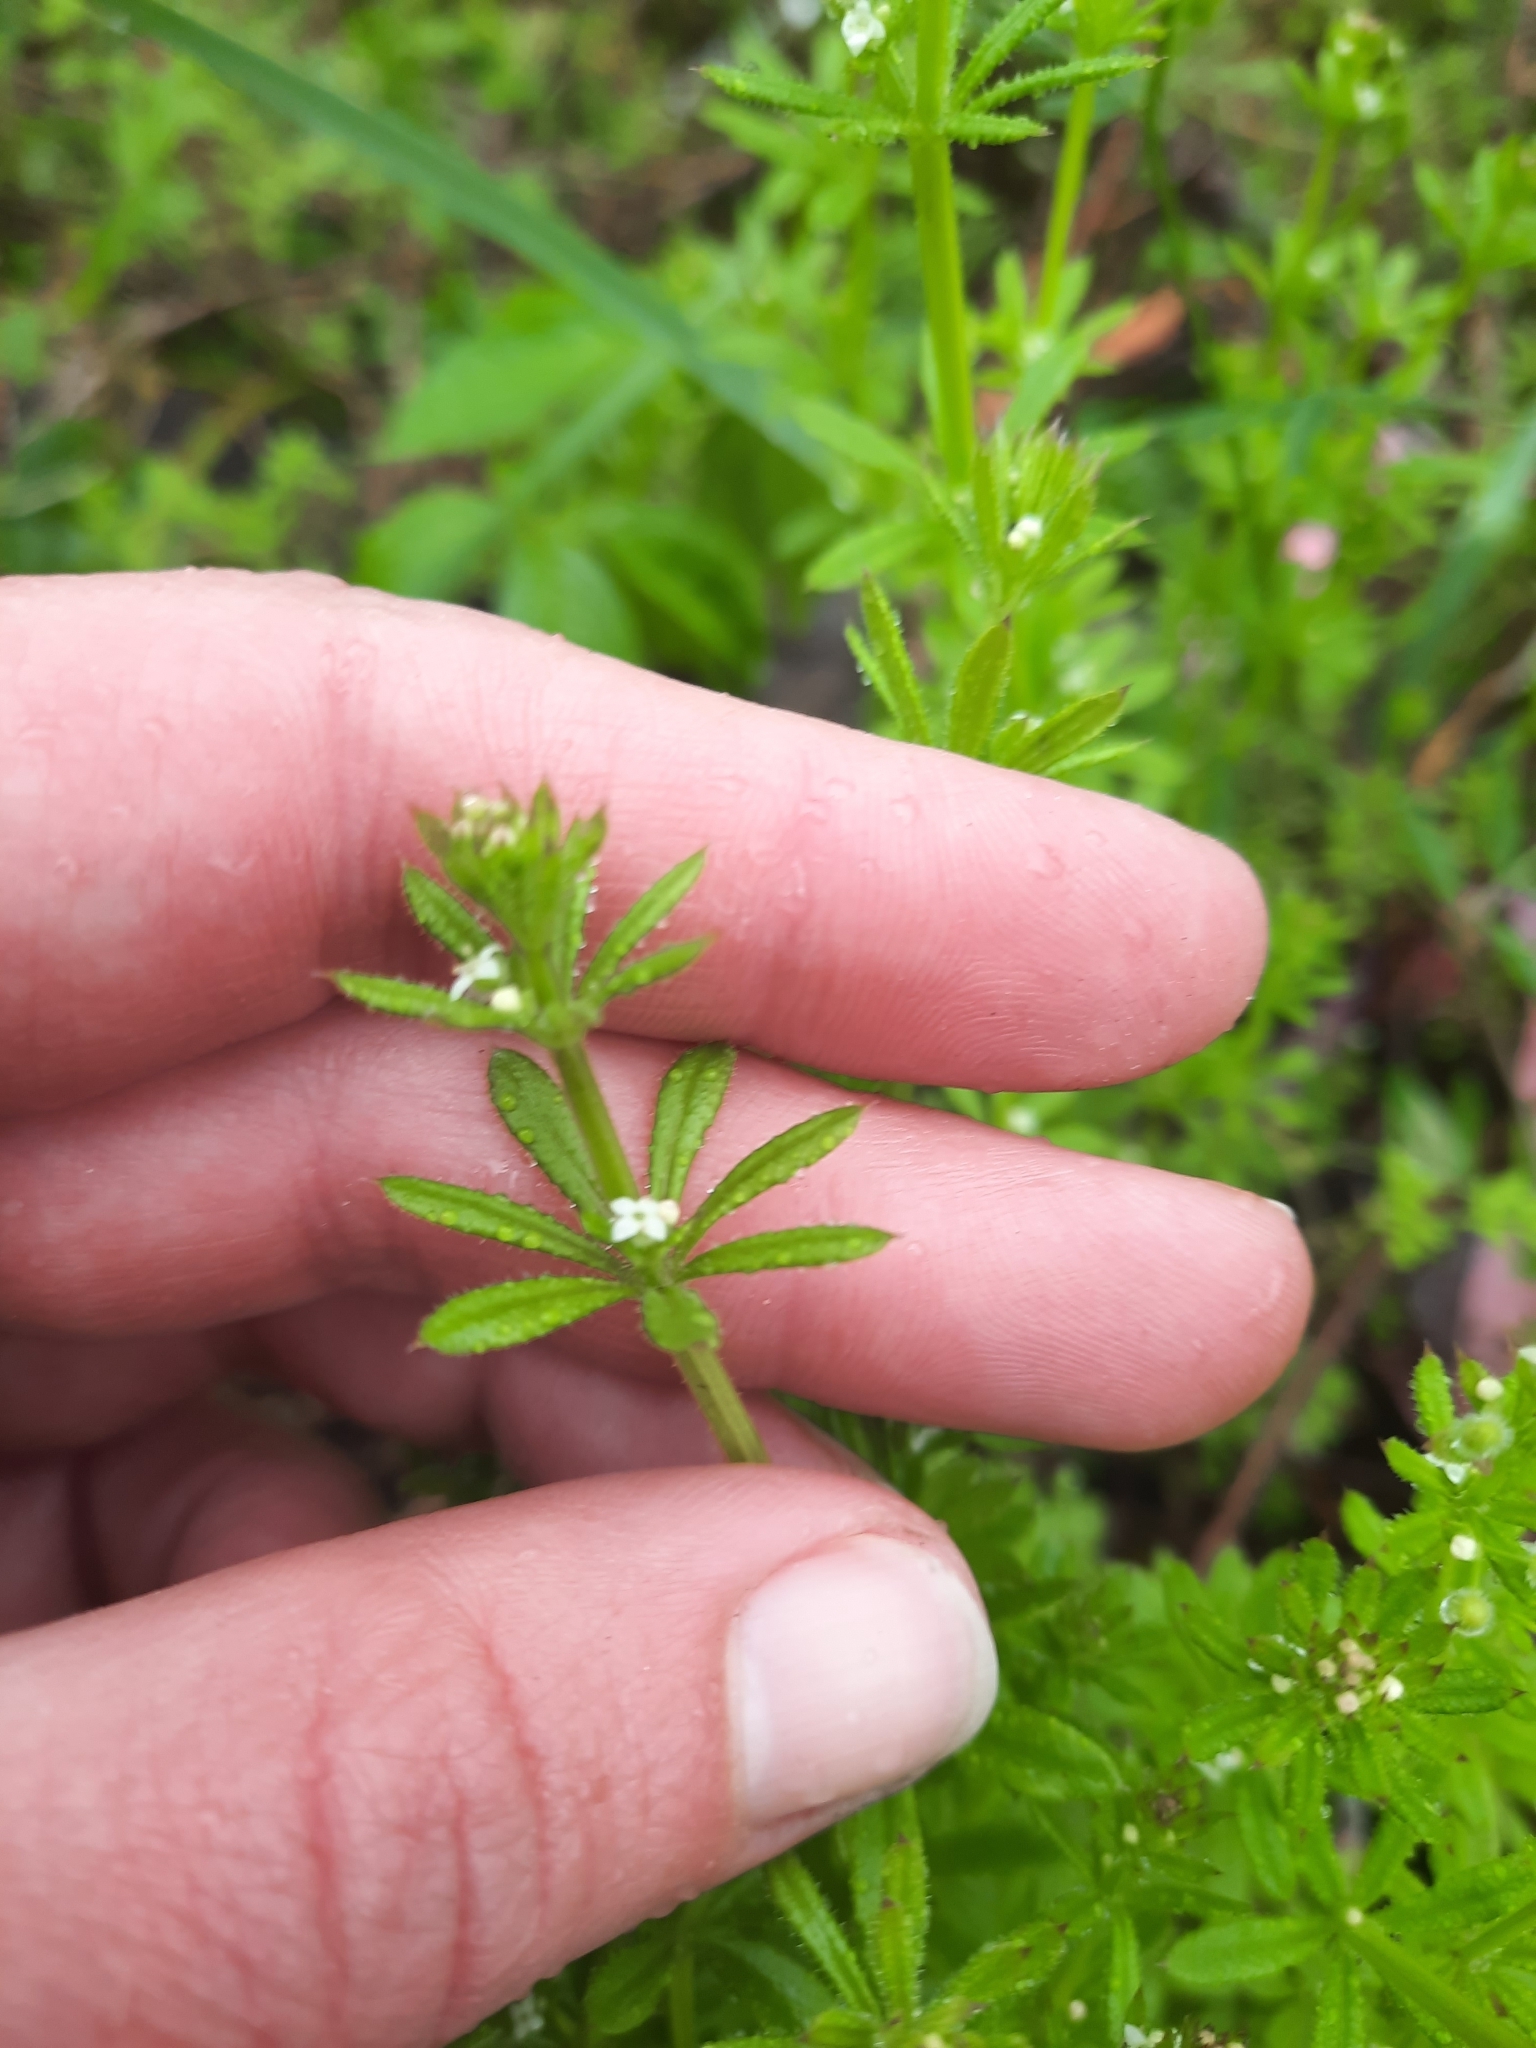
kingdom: Plantae
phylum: Tracheophyta
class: Magnoliopsida
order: Gentianales
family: Rubiaceae
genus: Galium
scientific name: Galium aparine
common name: Cleavers
